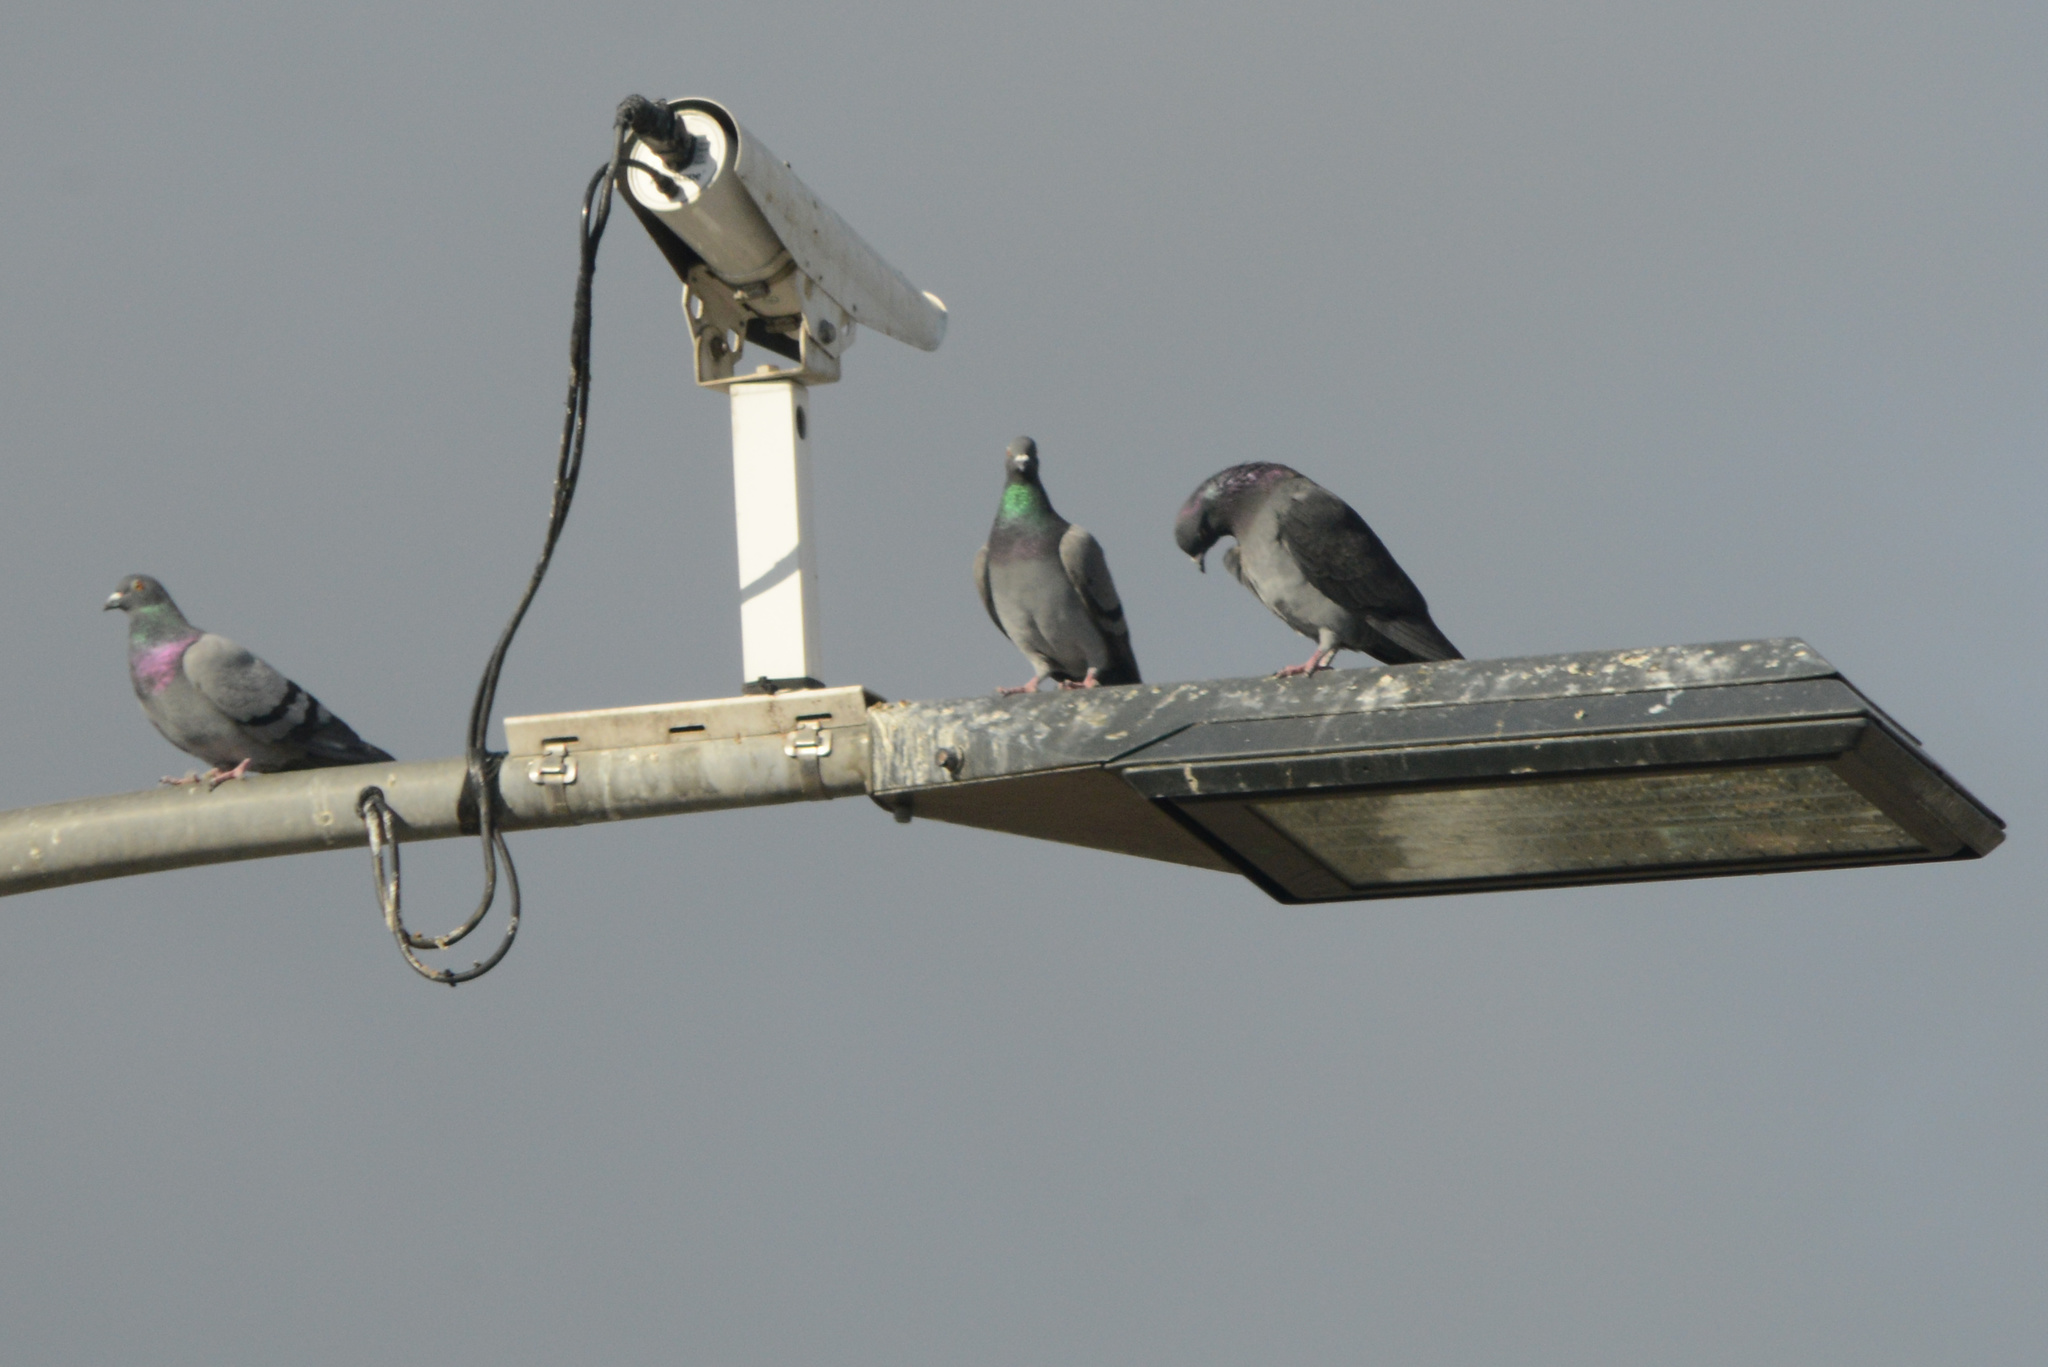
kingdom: Animalia
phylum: Chordata
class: Aves
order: Columbiformes
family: Columbidae
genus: Columba
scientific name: Columba livia
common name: Rock pigeon
